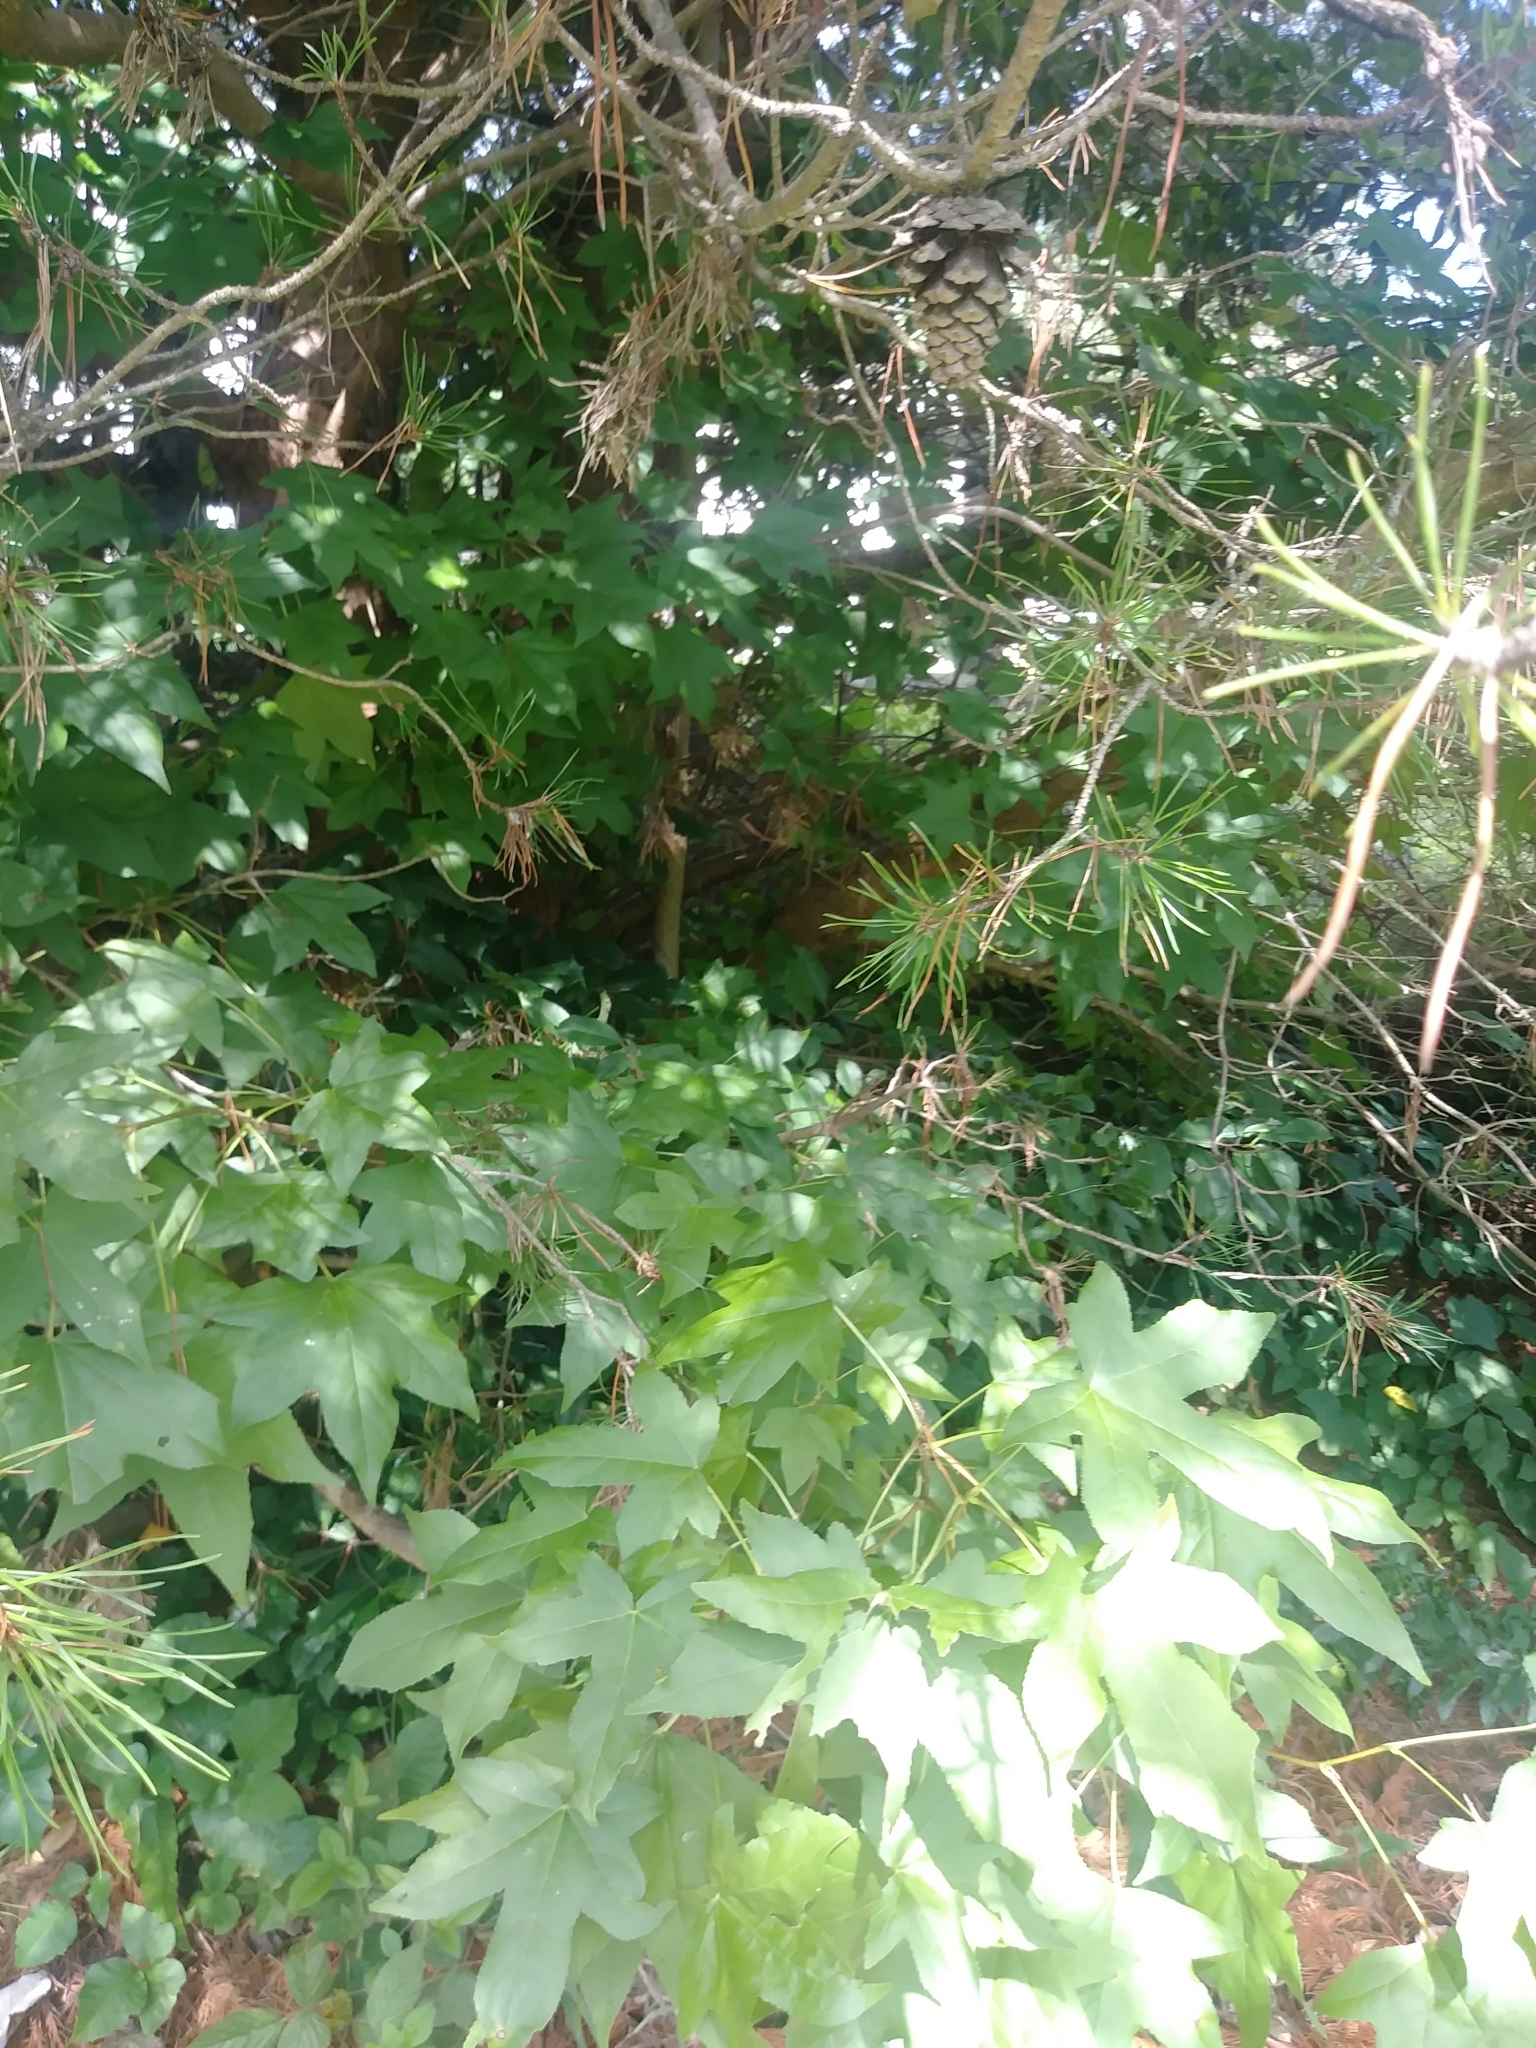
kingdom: Plantae
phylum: Tracheophyta
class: Magnoliopsida
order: Saxifragales
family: Altingiaceae
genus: Liquidambar
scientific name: Liquidambar styraciflua
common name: Sweet gum
